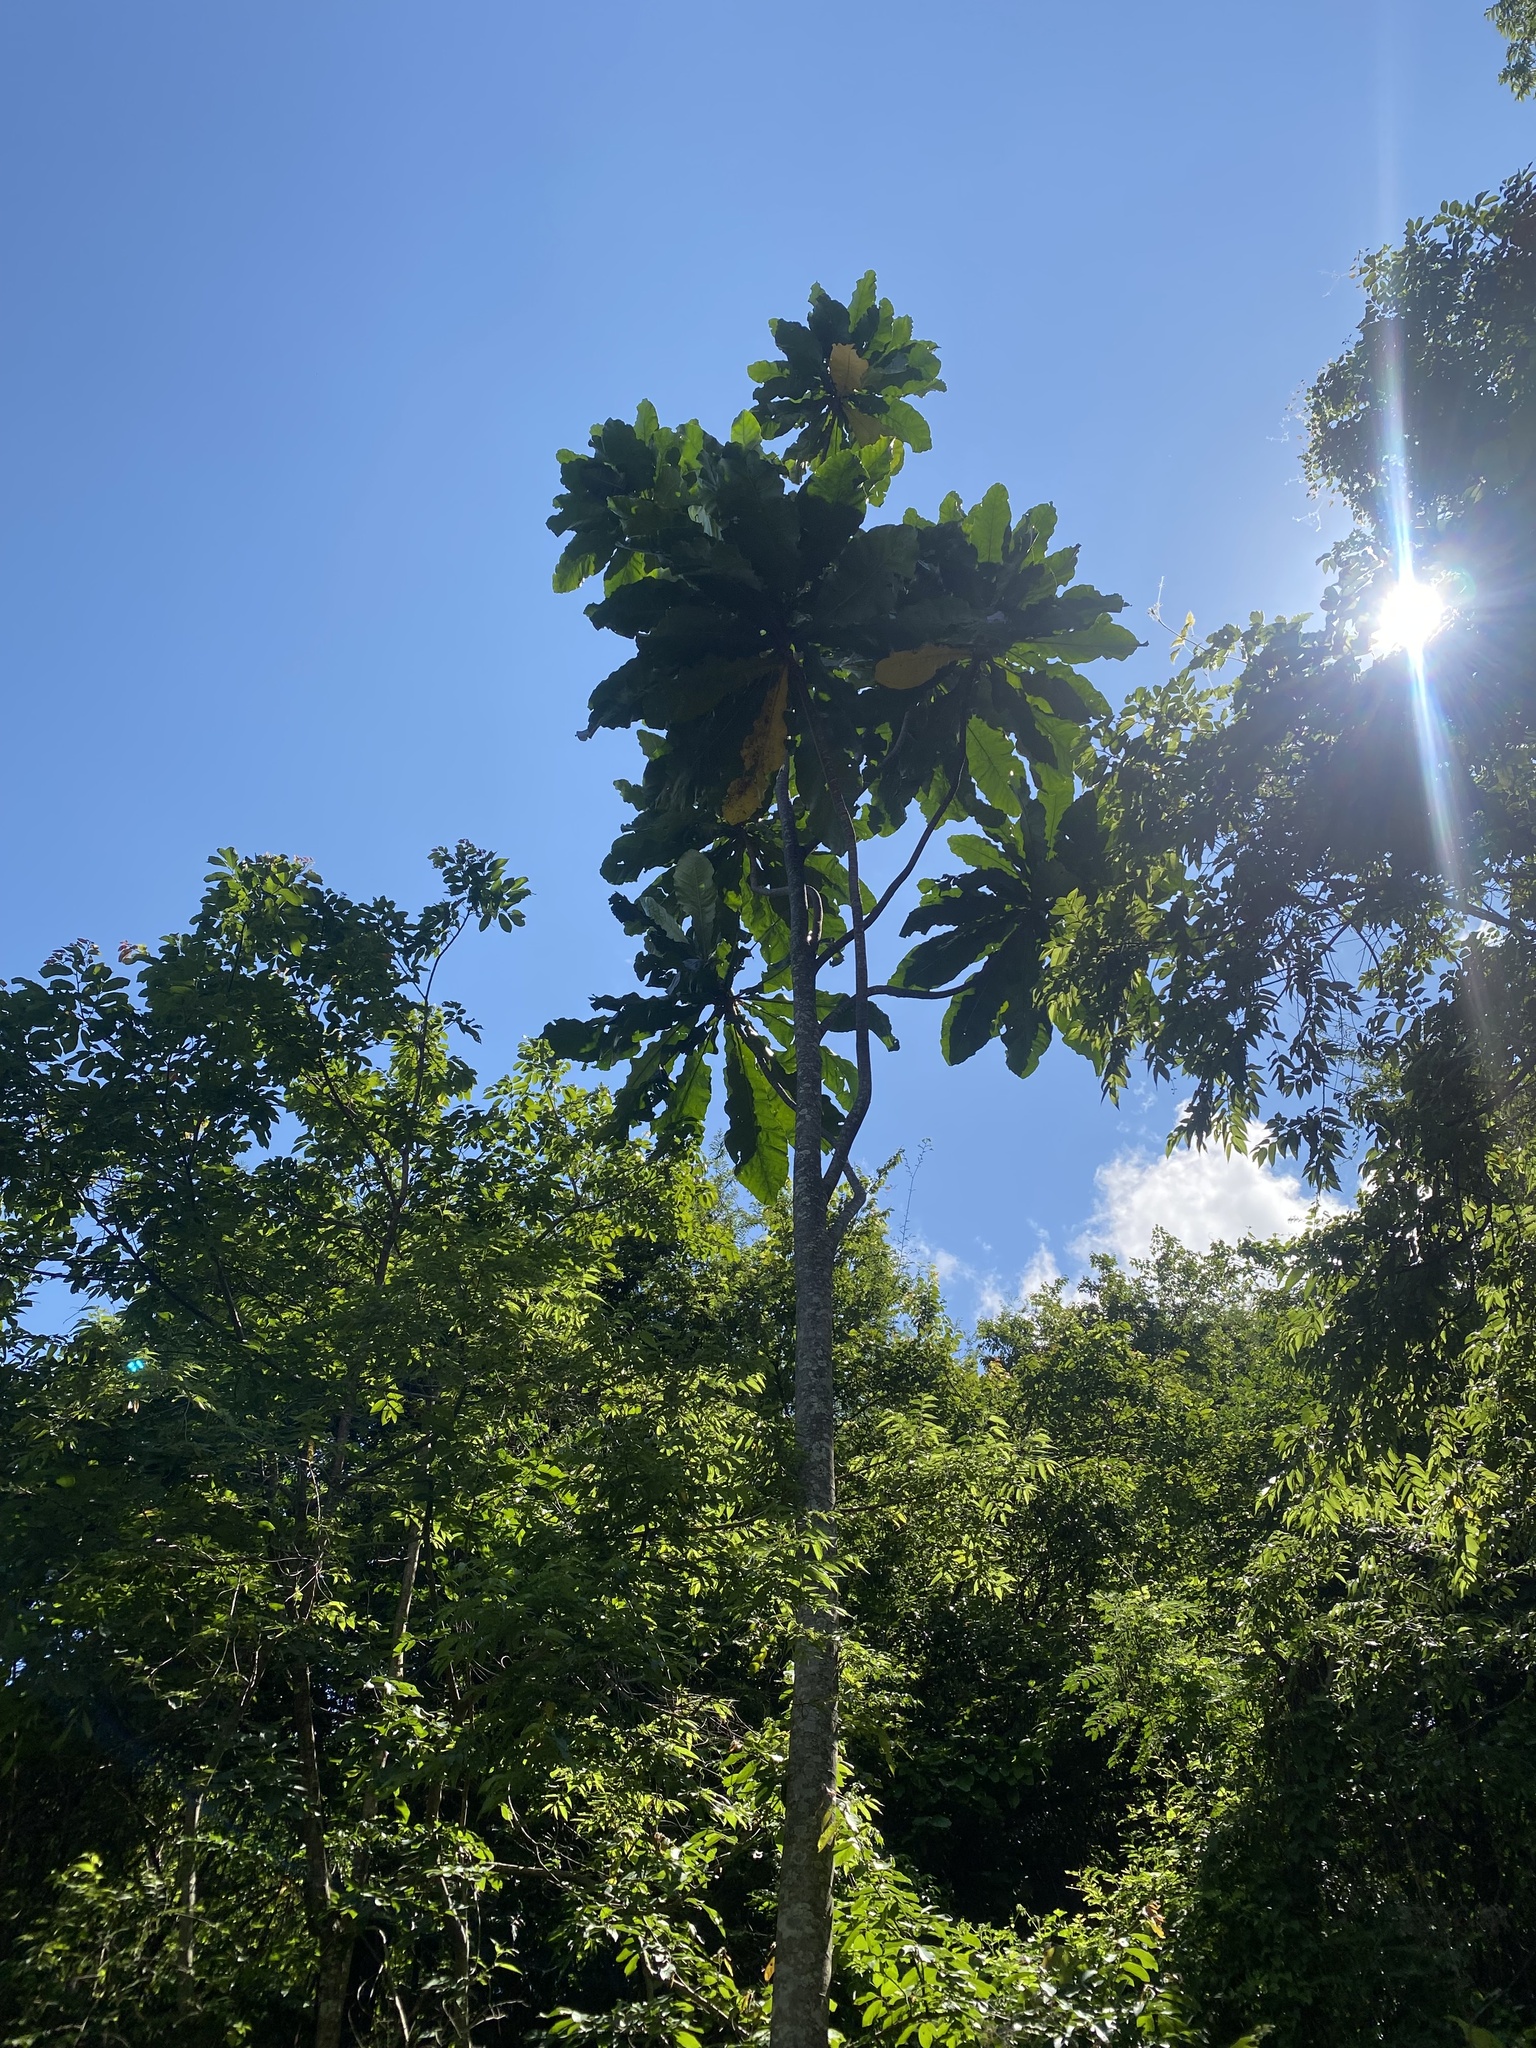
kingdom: Plantae
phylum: Tracheophyta
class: Magnoliopsida
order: Gentianales
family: Gentianaceae
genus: Anthocleista
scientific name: Anthocleista grandiflora
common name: Forest big-leaf
